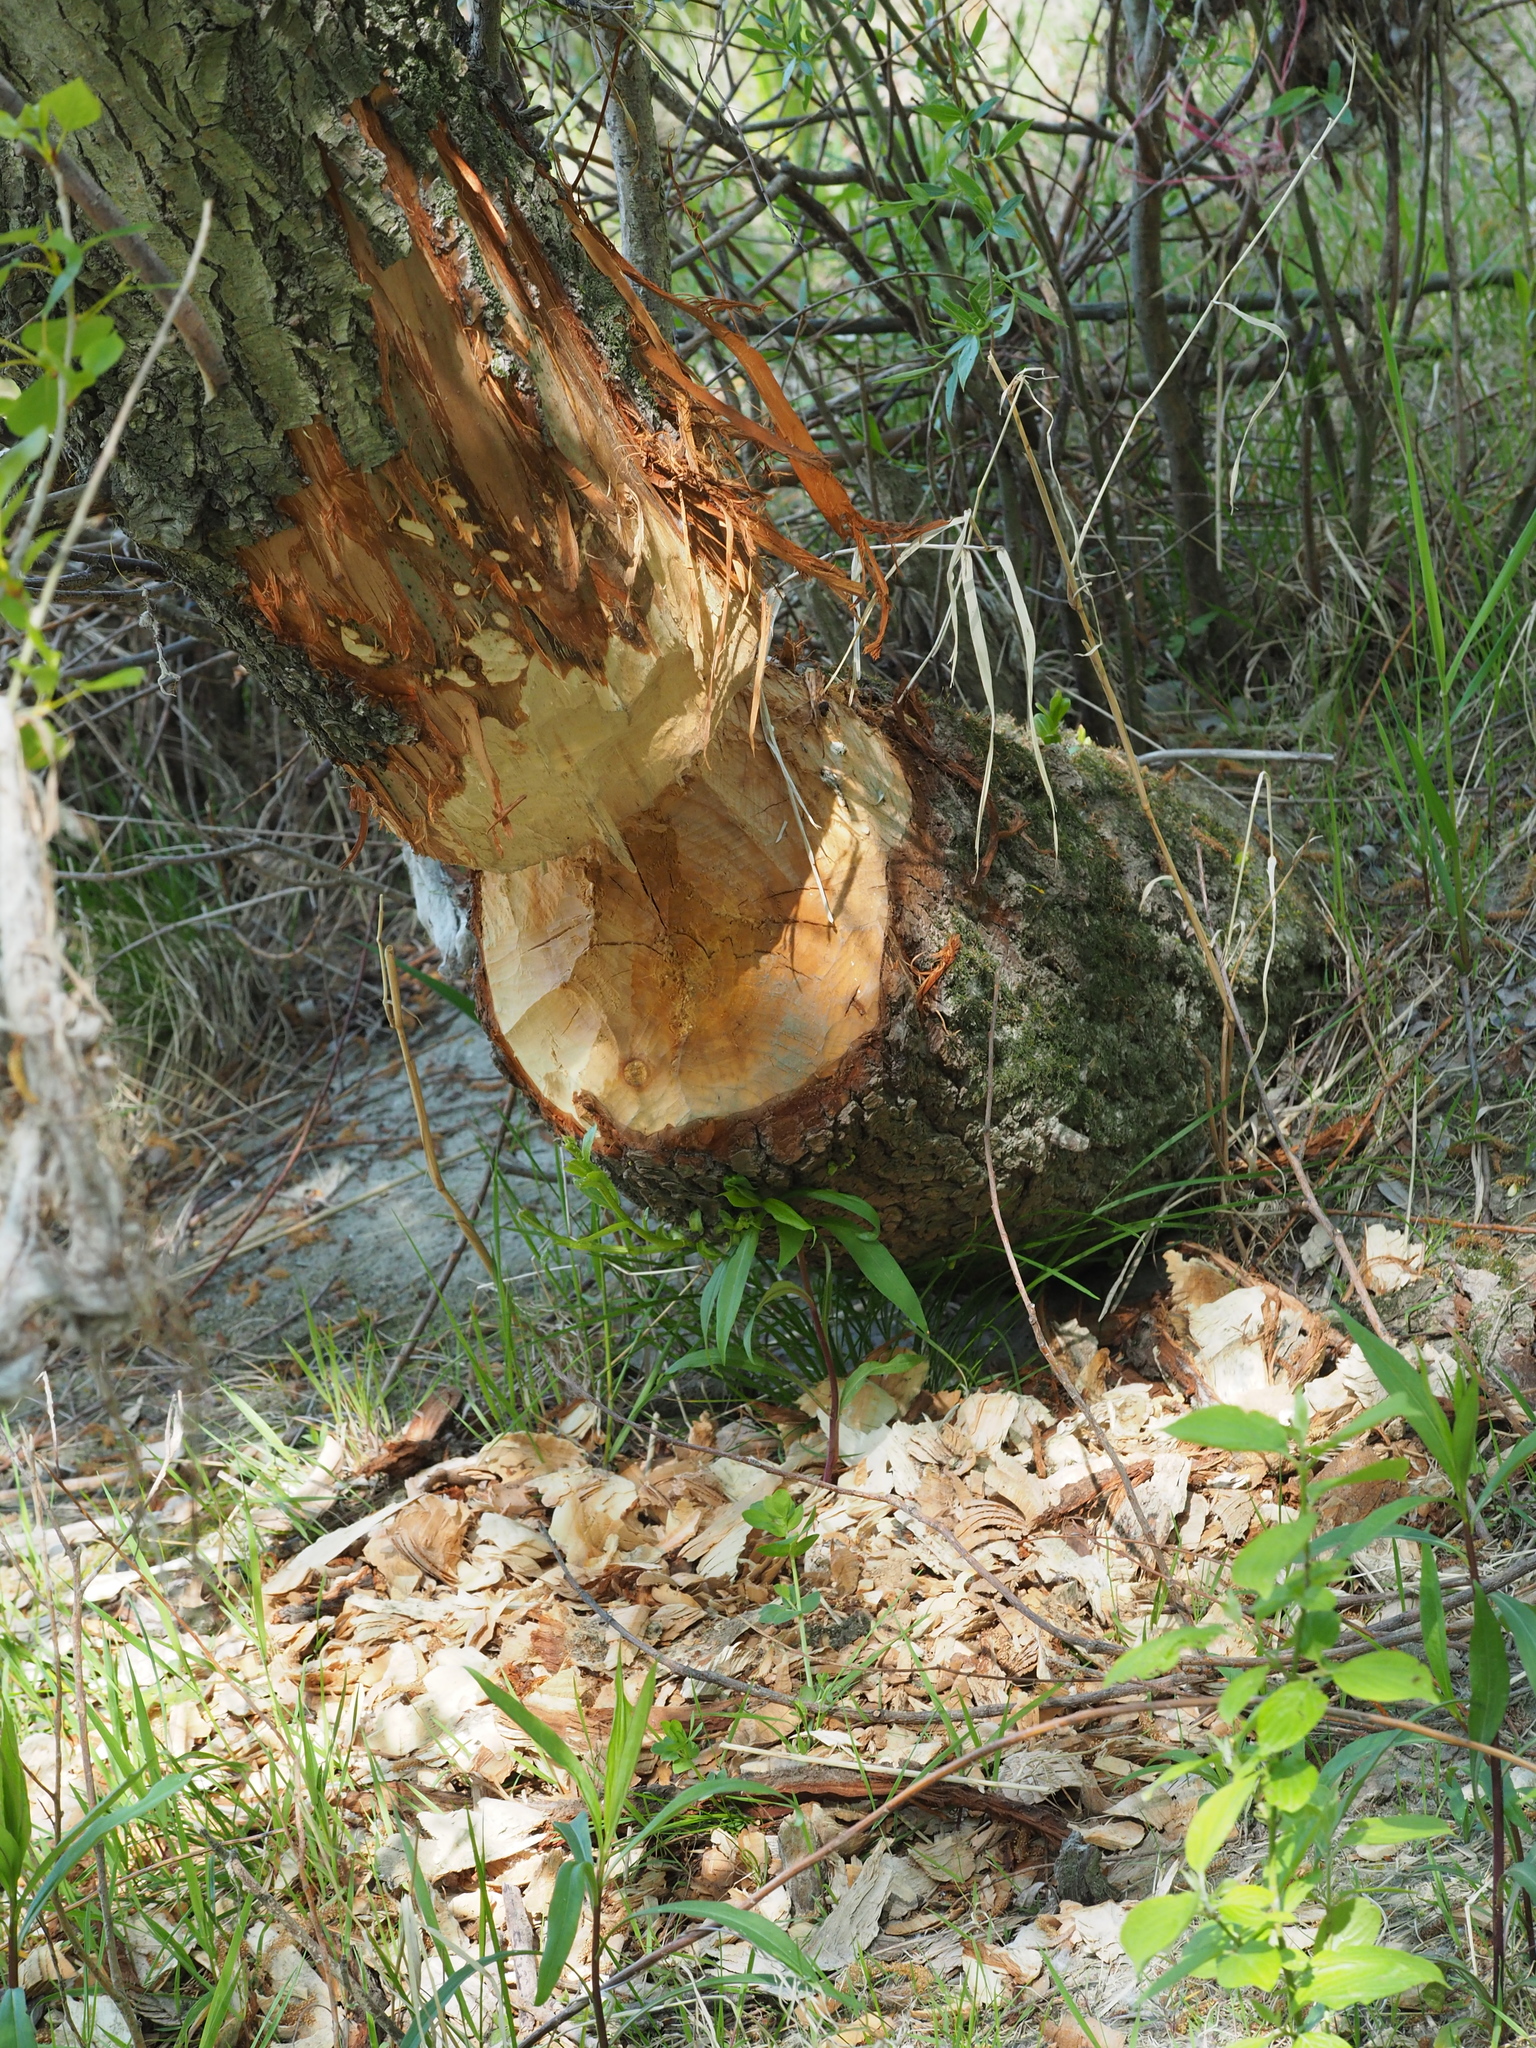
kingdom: Animalia
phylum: Chordata
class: Mammalia
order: Rodentia
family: Castoridae
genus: Castor
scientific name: Castor fiber
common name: Eurasian beaver
